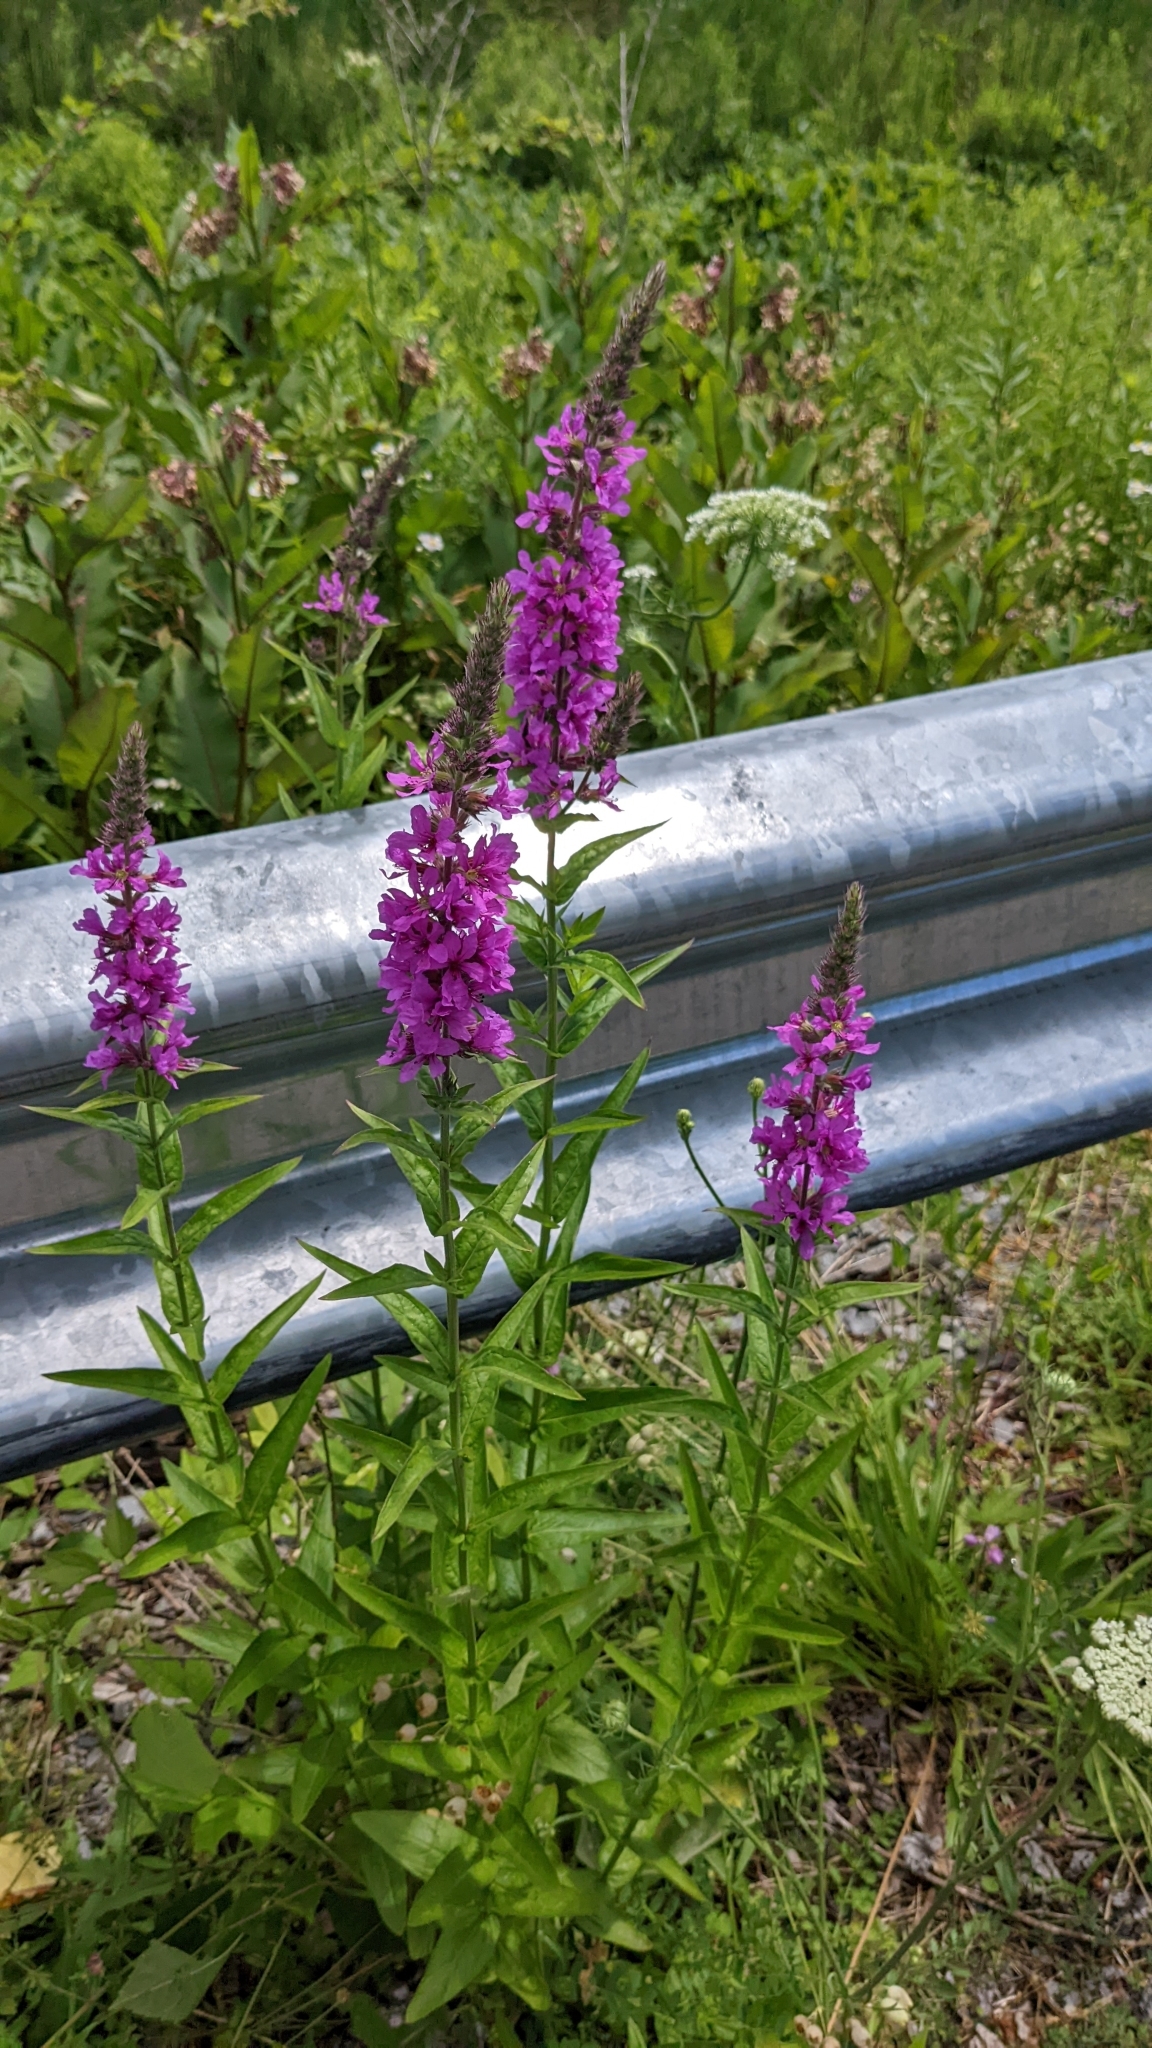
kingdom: Plantae
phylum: Tracheophyta
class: Magnoliopsida
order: Myrtales
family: Lythraceae
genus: Lythrum
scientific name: Lythrum salicaria
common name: Purple loosestrife
